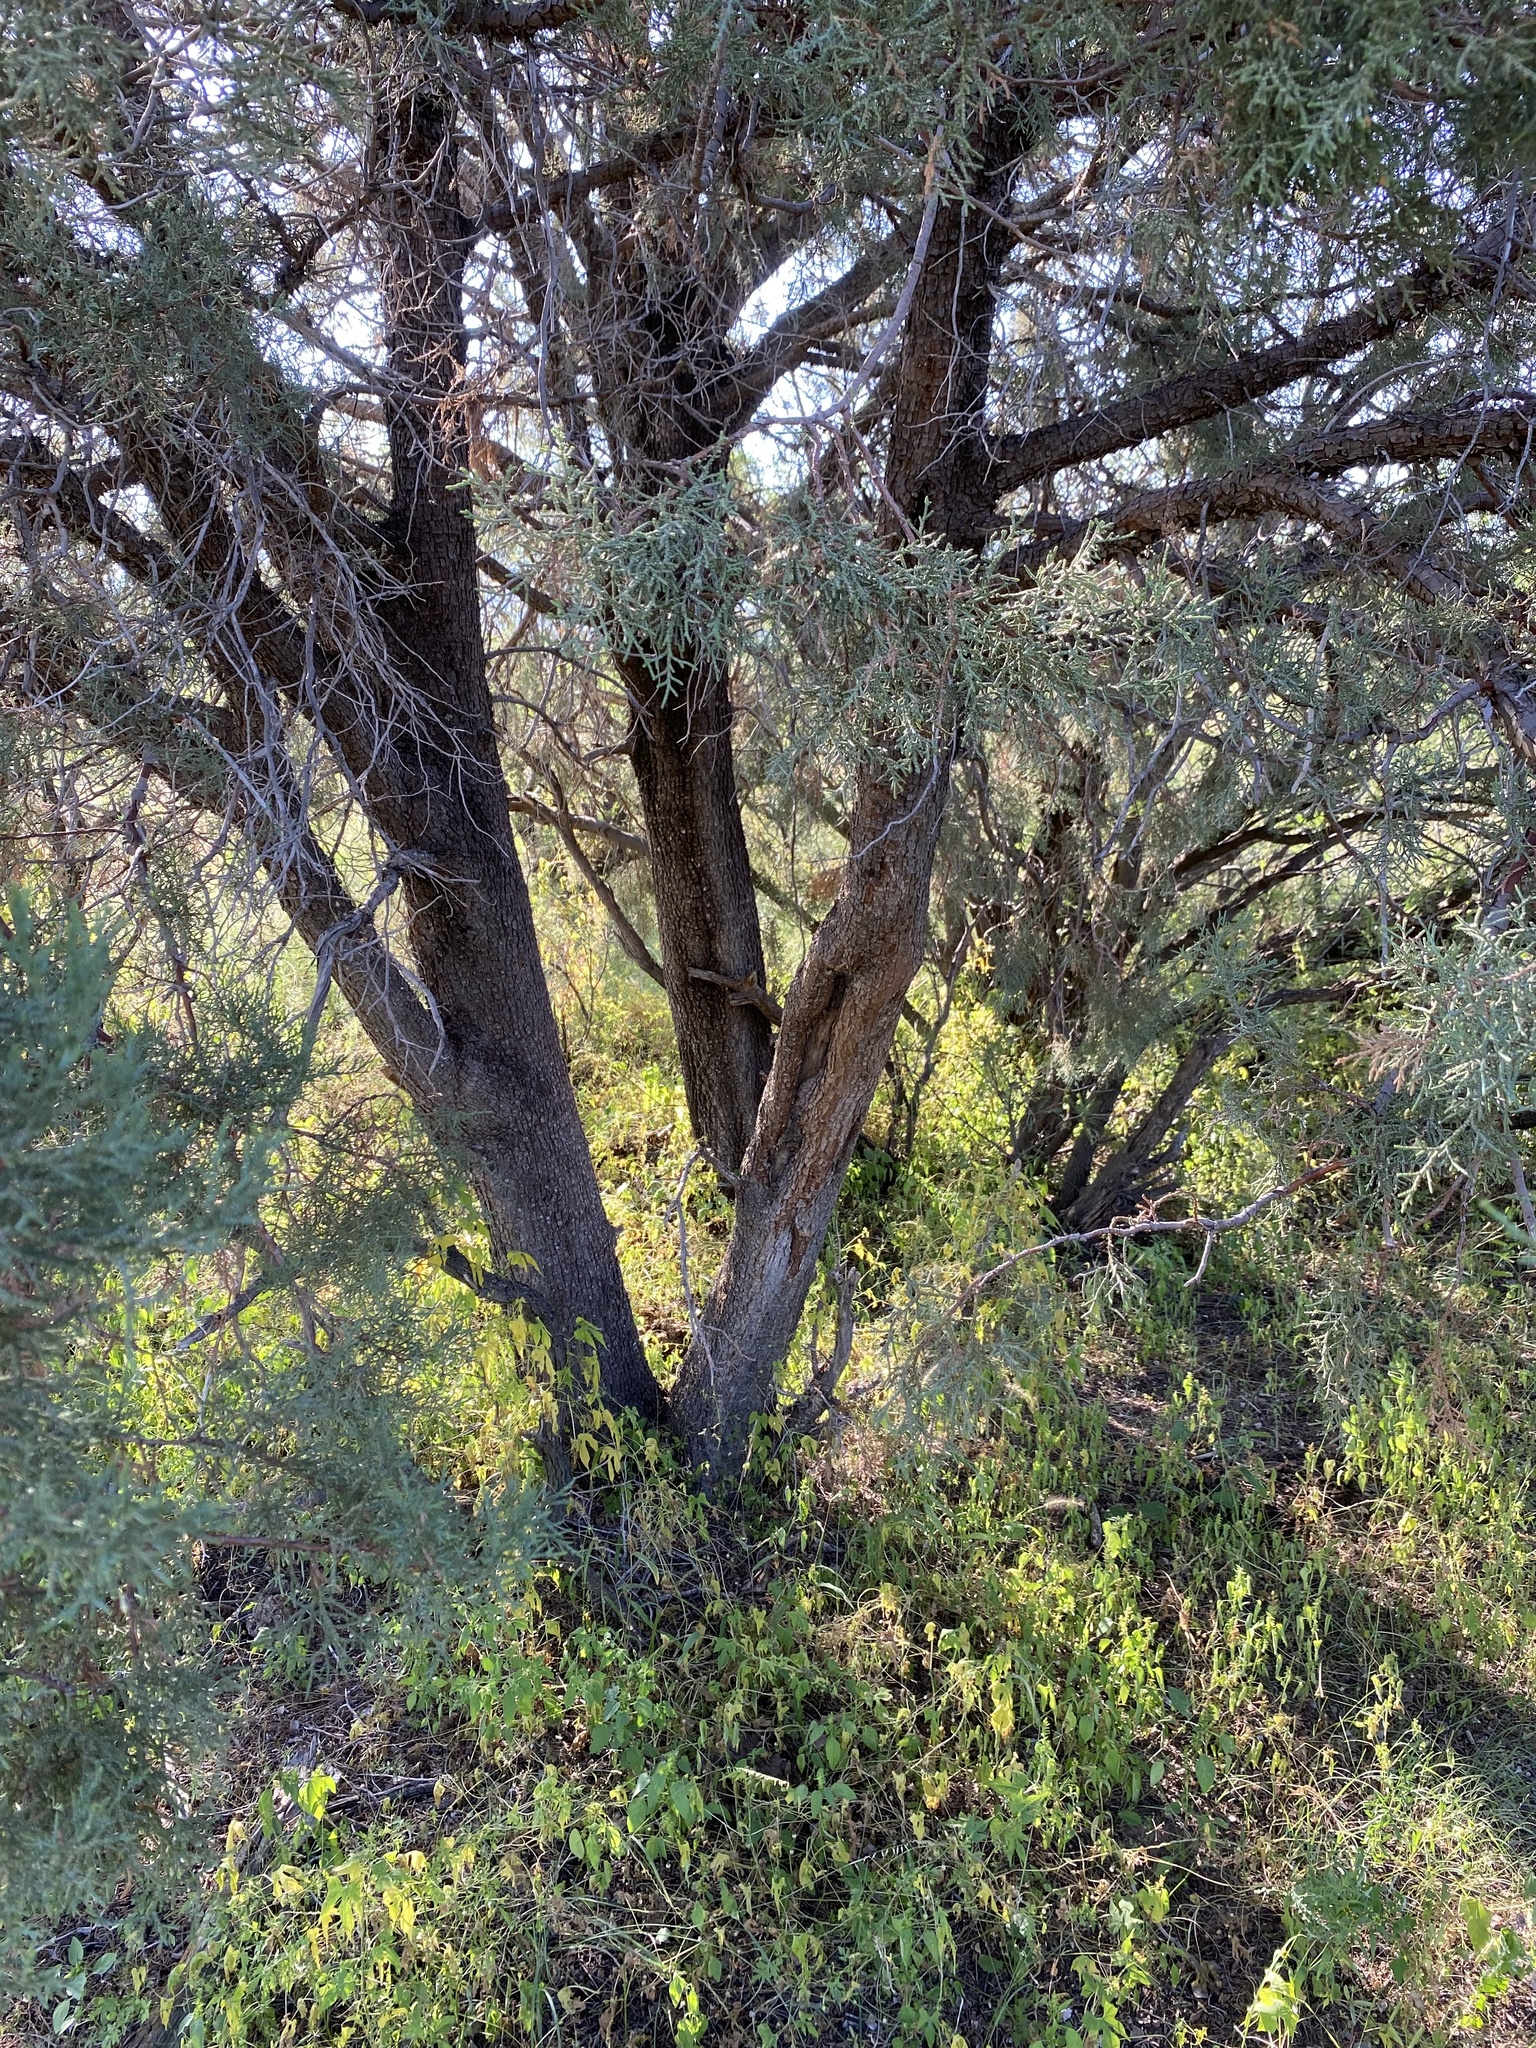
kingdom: Plantae
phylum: Tracheophyta
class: Pinopsida
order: Pinales
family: Cupressaceae
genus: Juniperus
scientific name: Juniperus deppeana
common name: Alligator juniper
